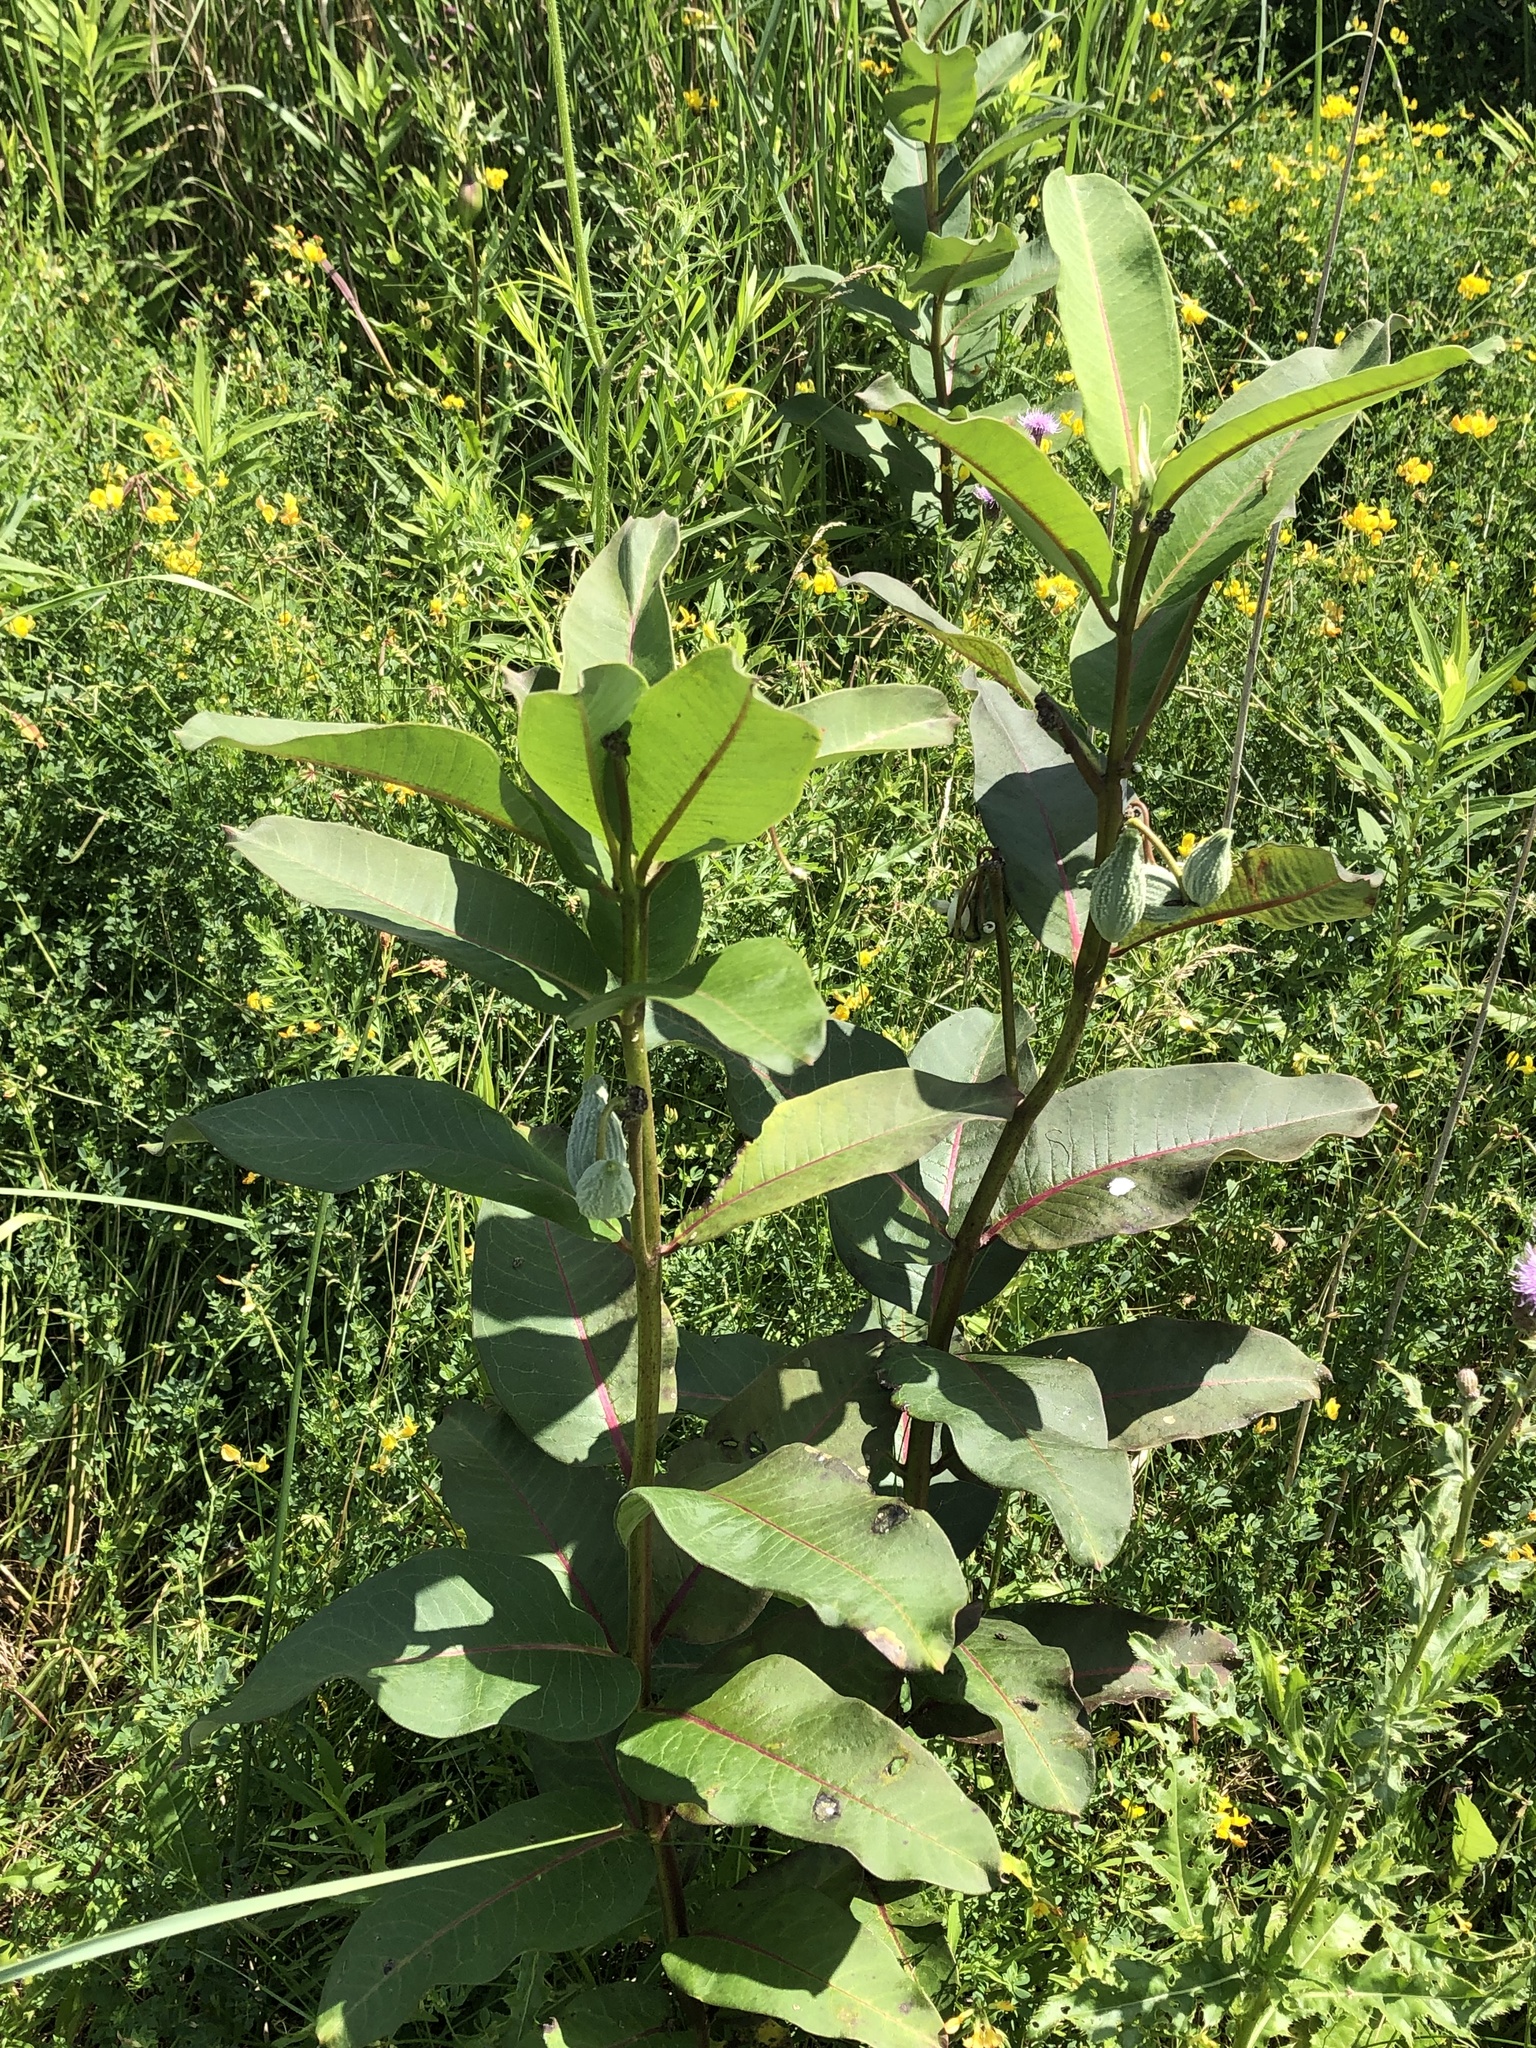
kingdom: Plantae
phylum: Tracheophyta
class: Magnoliopsida
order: Gentianales
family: Apocynaceae
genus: Asclepias
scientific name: Asclepias syriaca
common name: Common milkweed
